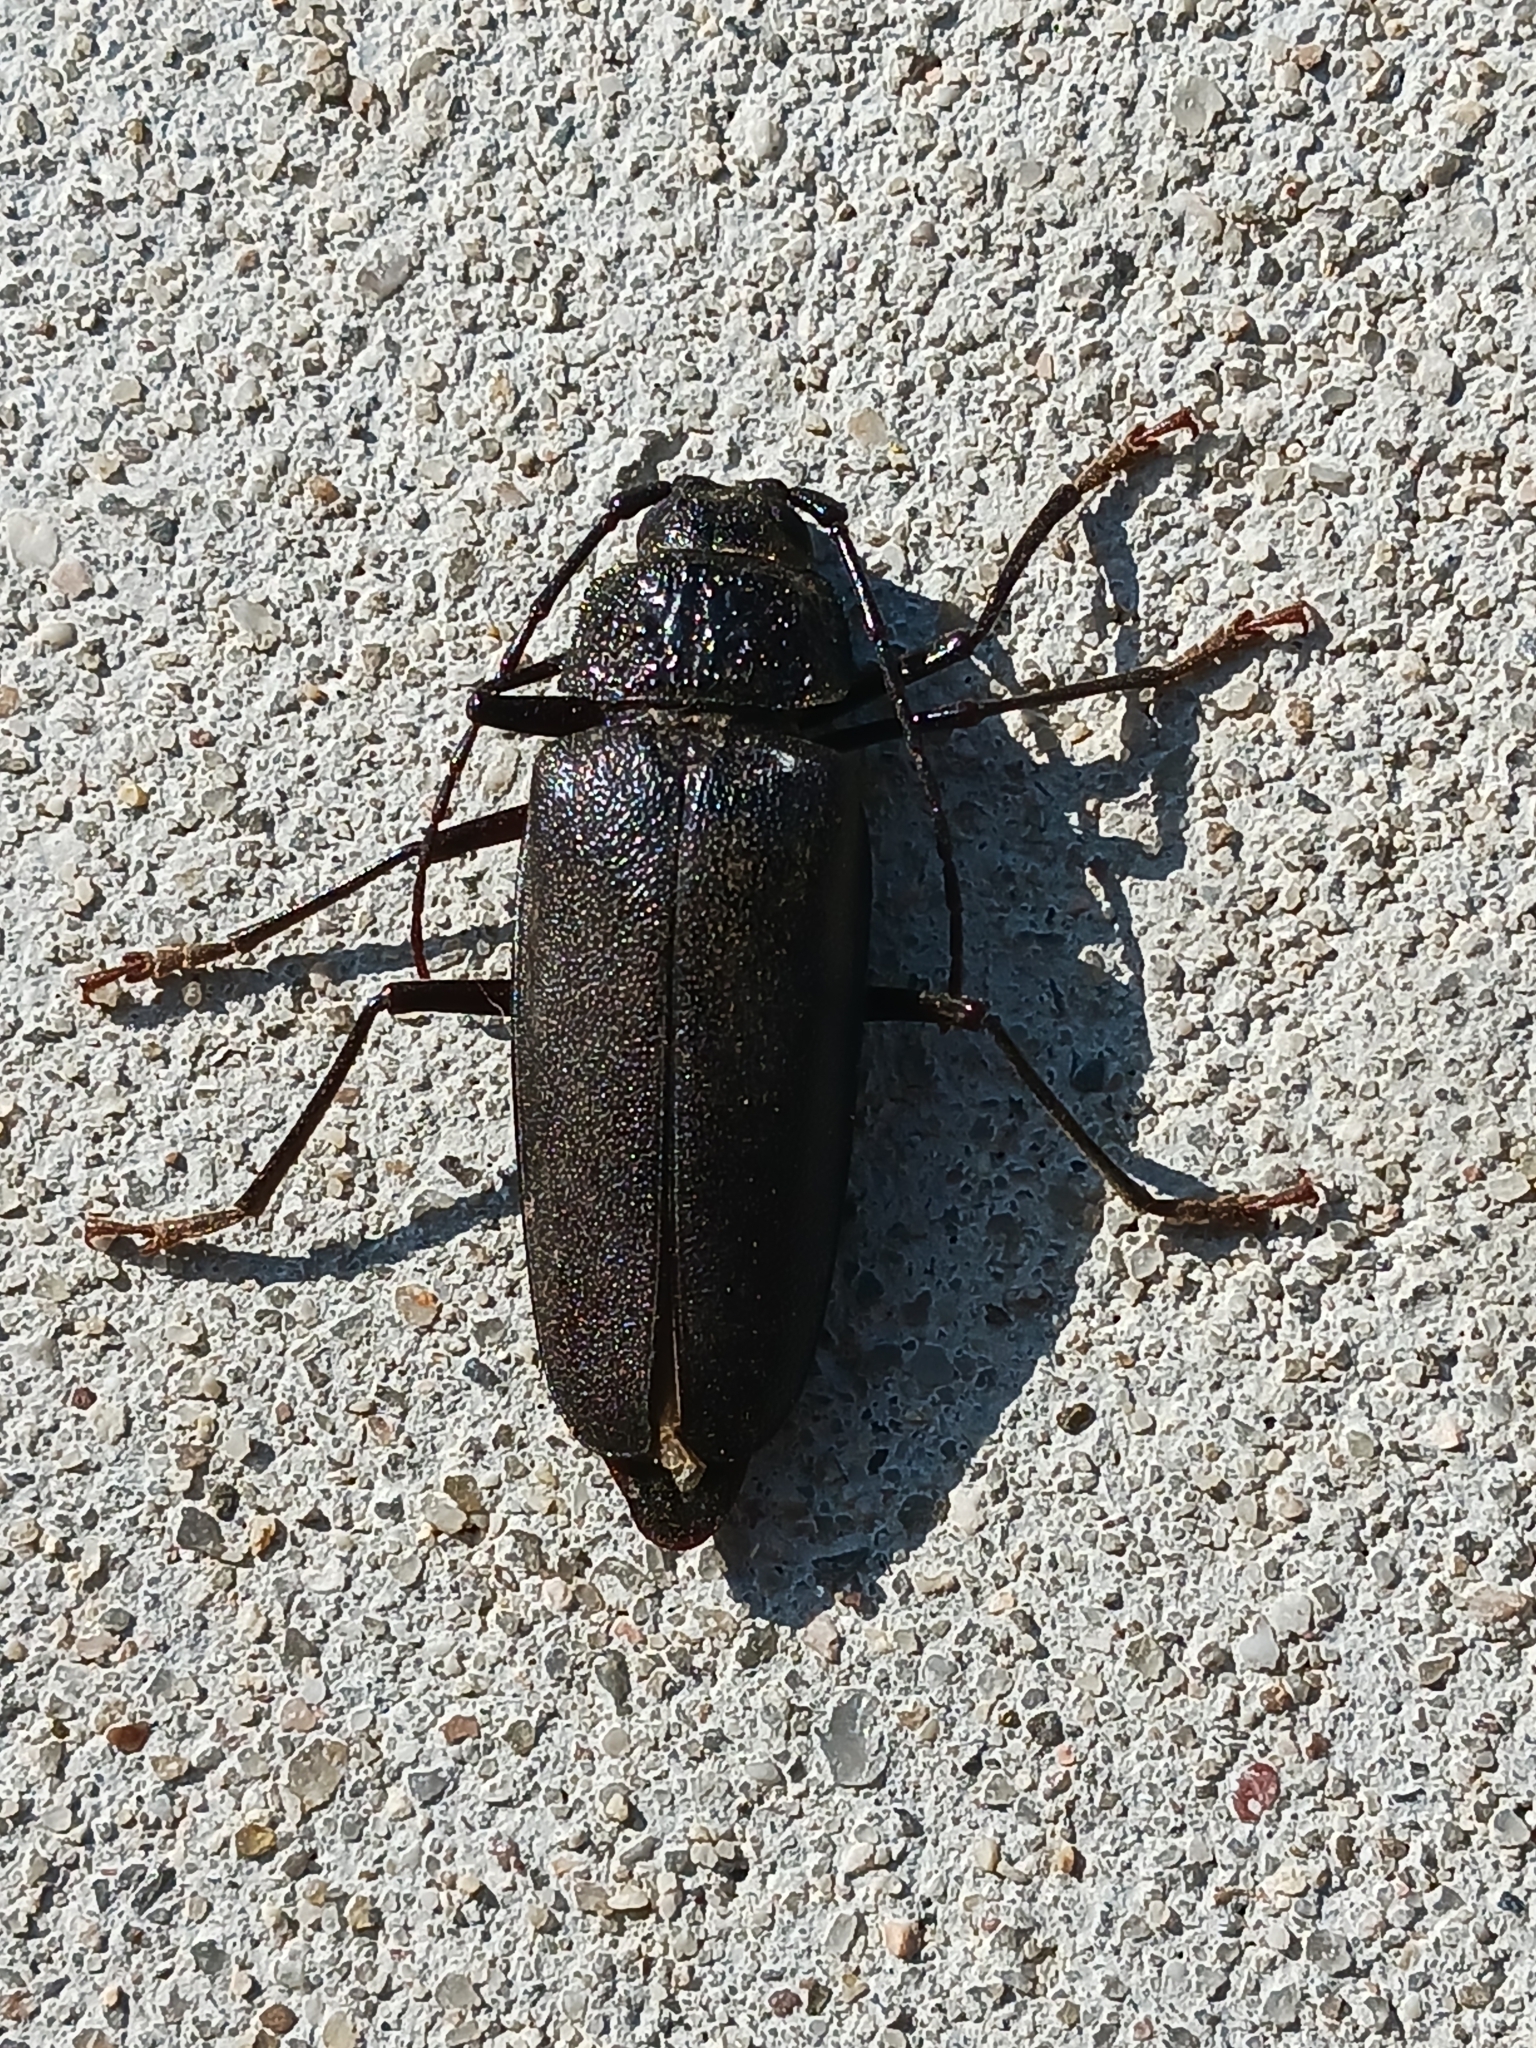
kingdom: Animalia
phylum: Arthropoda
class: Insecta
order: Coleoptera
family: Cerambycidae
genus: Ergates
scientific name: Ergates faber
